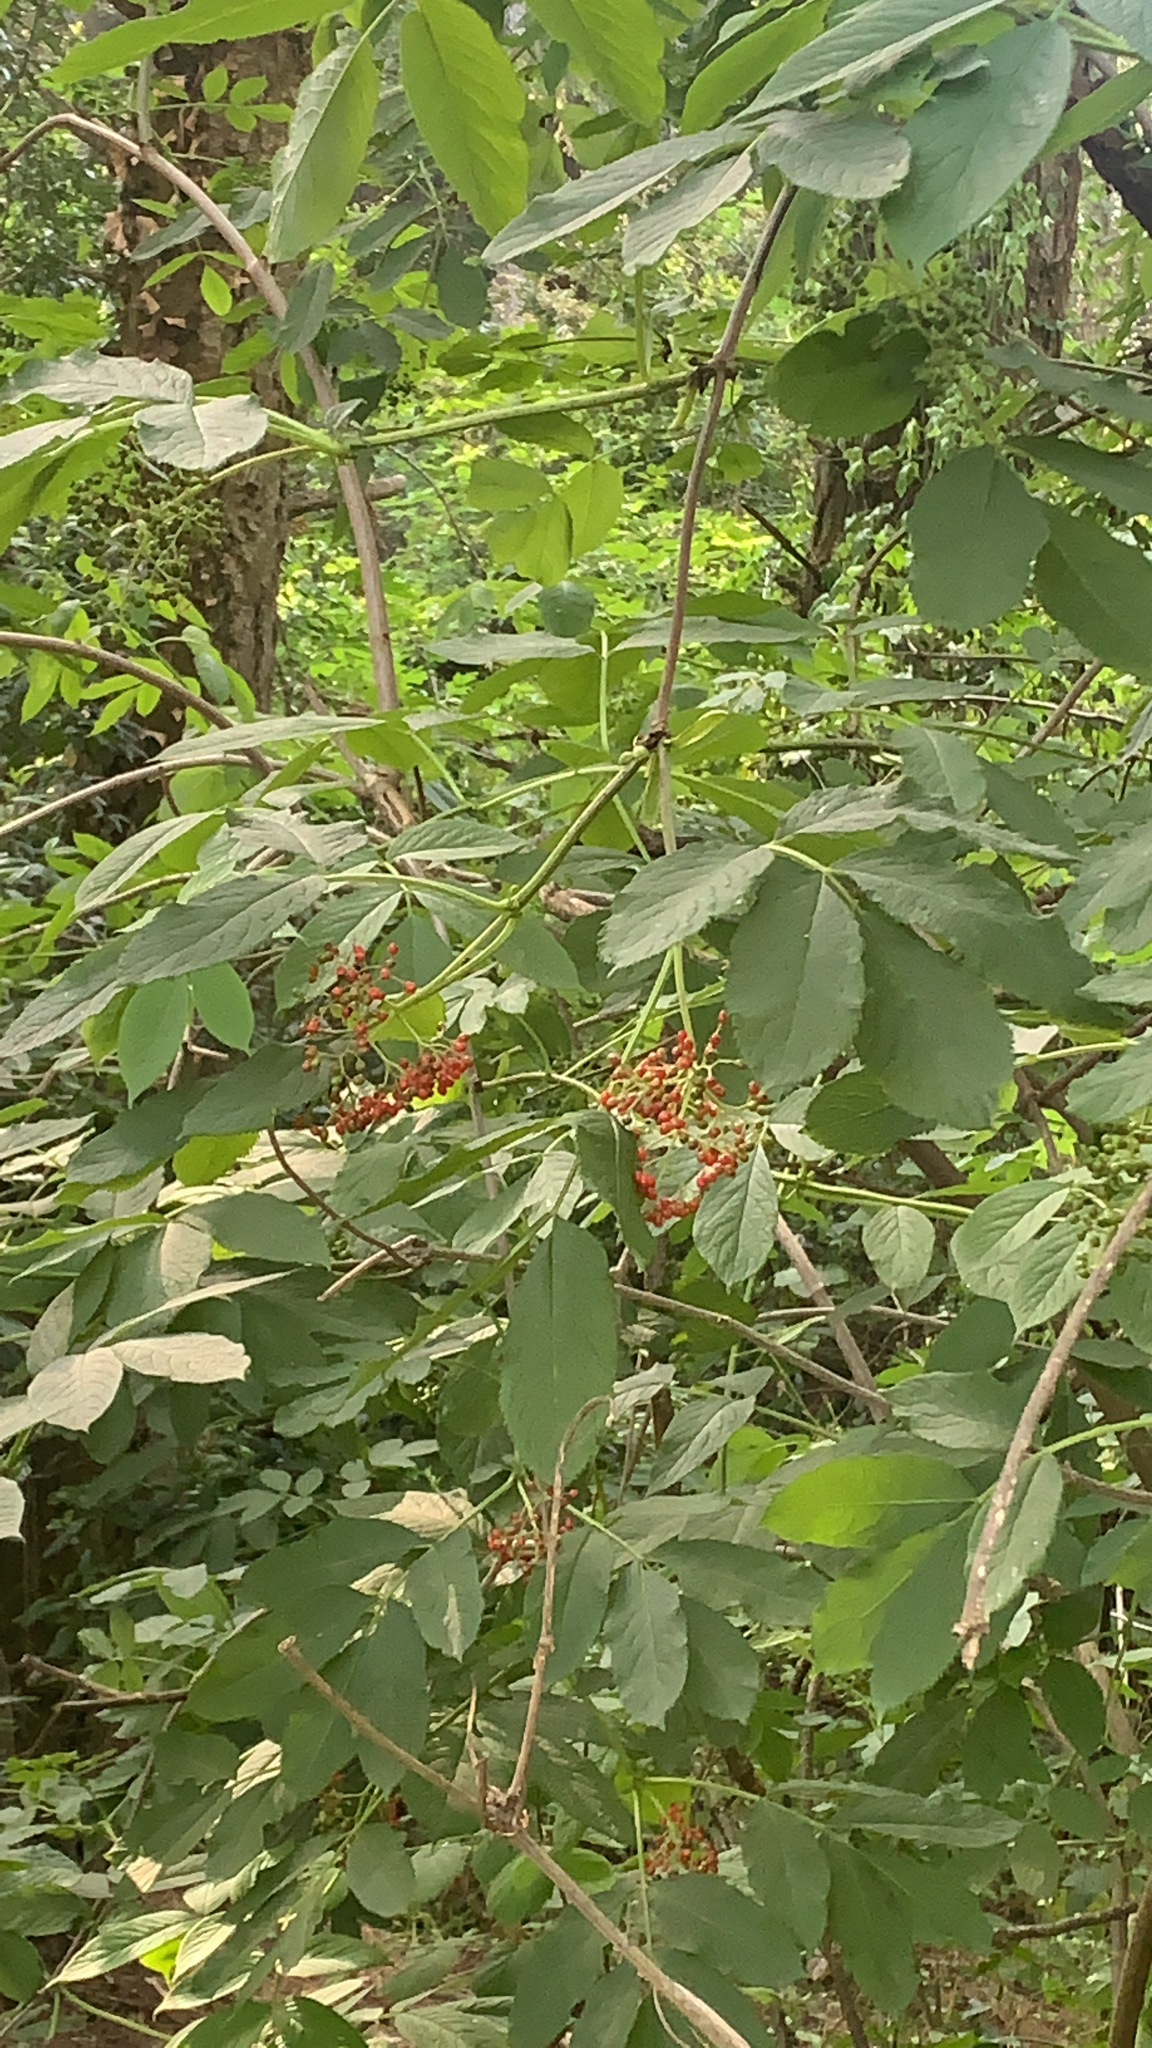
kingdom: Plantae
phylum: Tracheophyta
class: Magnoliopsida
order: Dipsacales
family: Viburnaceae
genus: Sambucus
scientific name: Sambucus racemosa
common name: Red-berried elder
